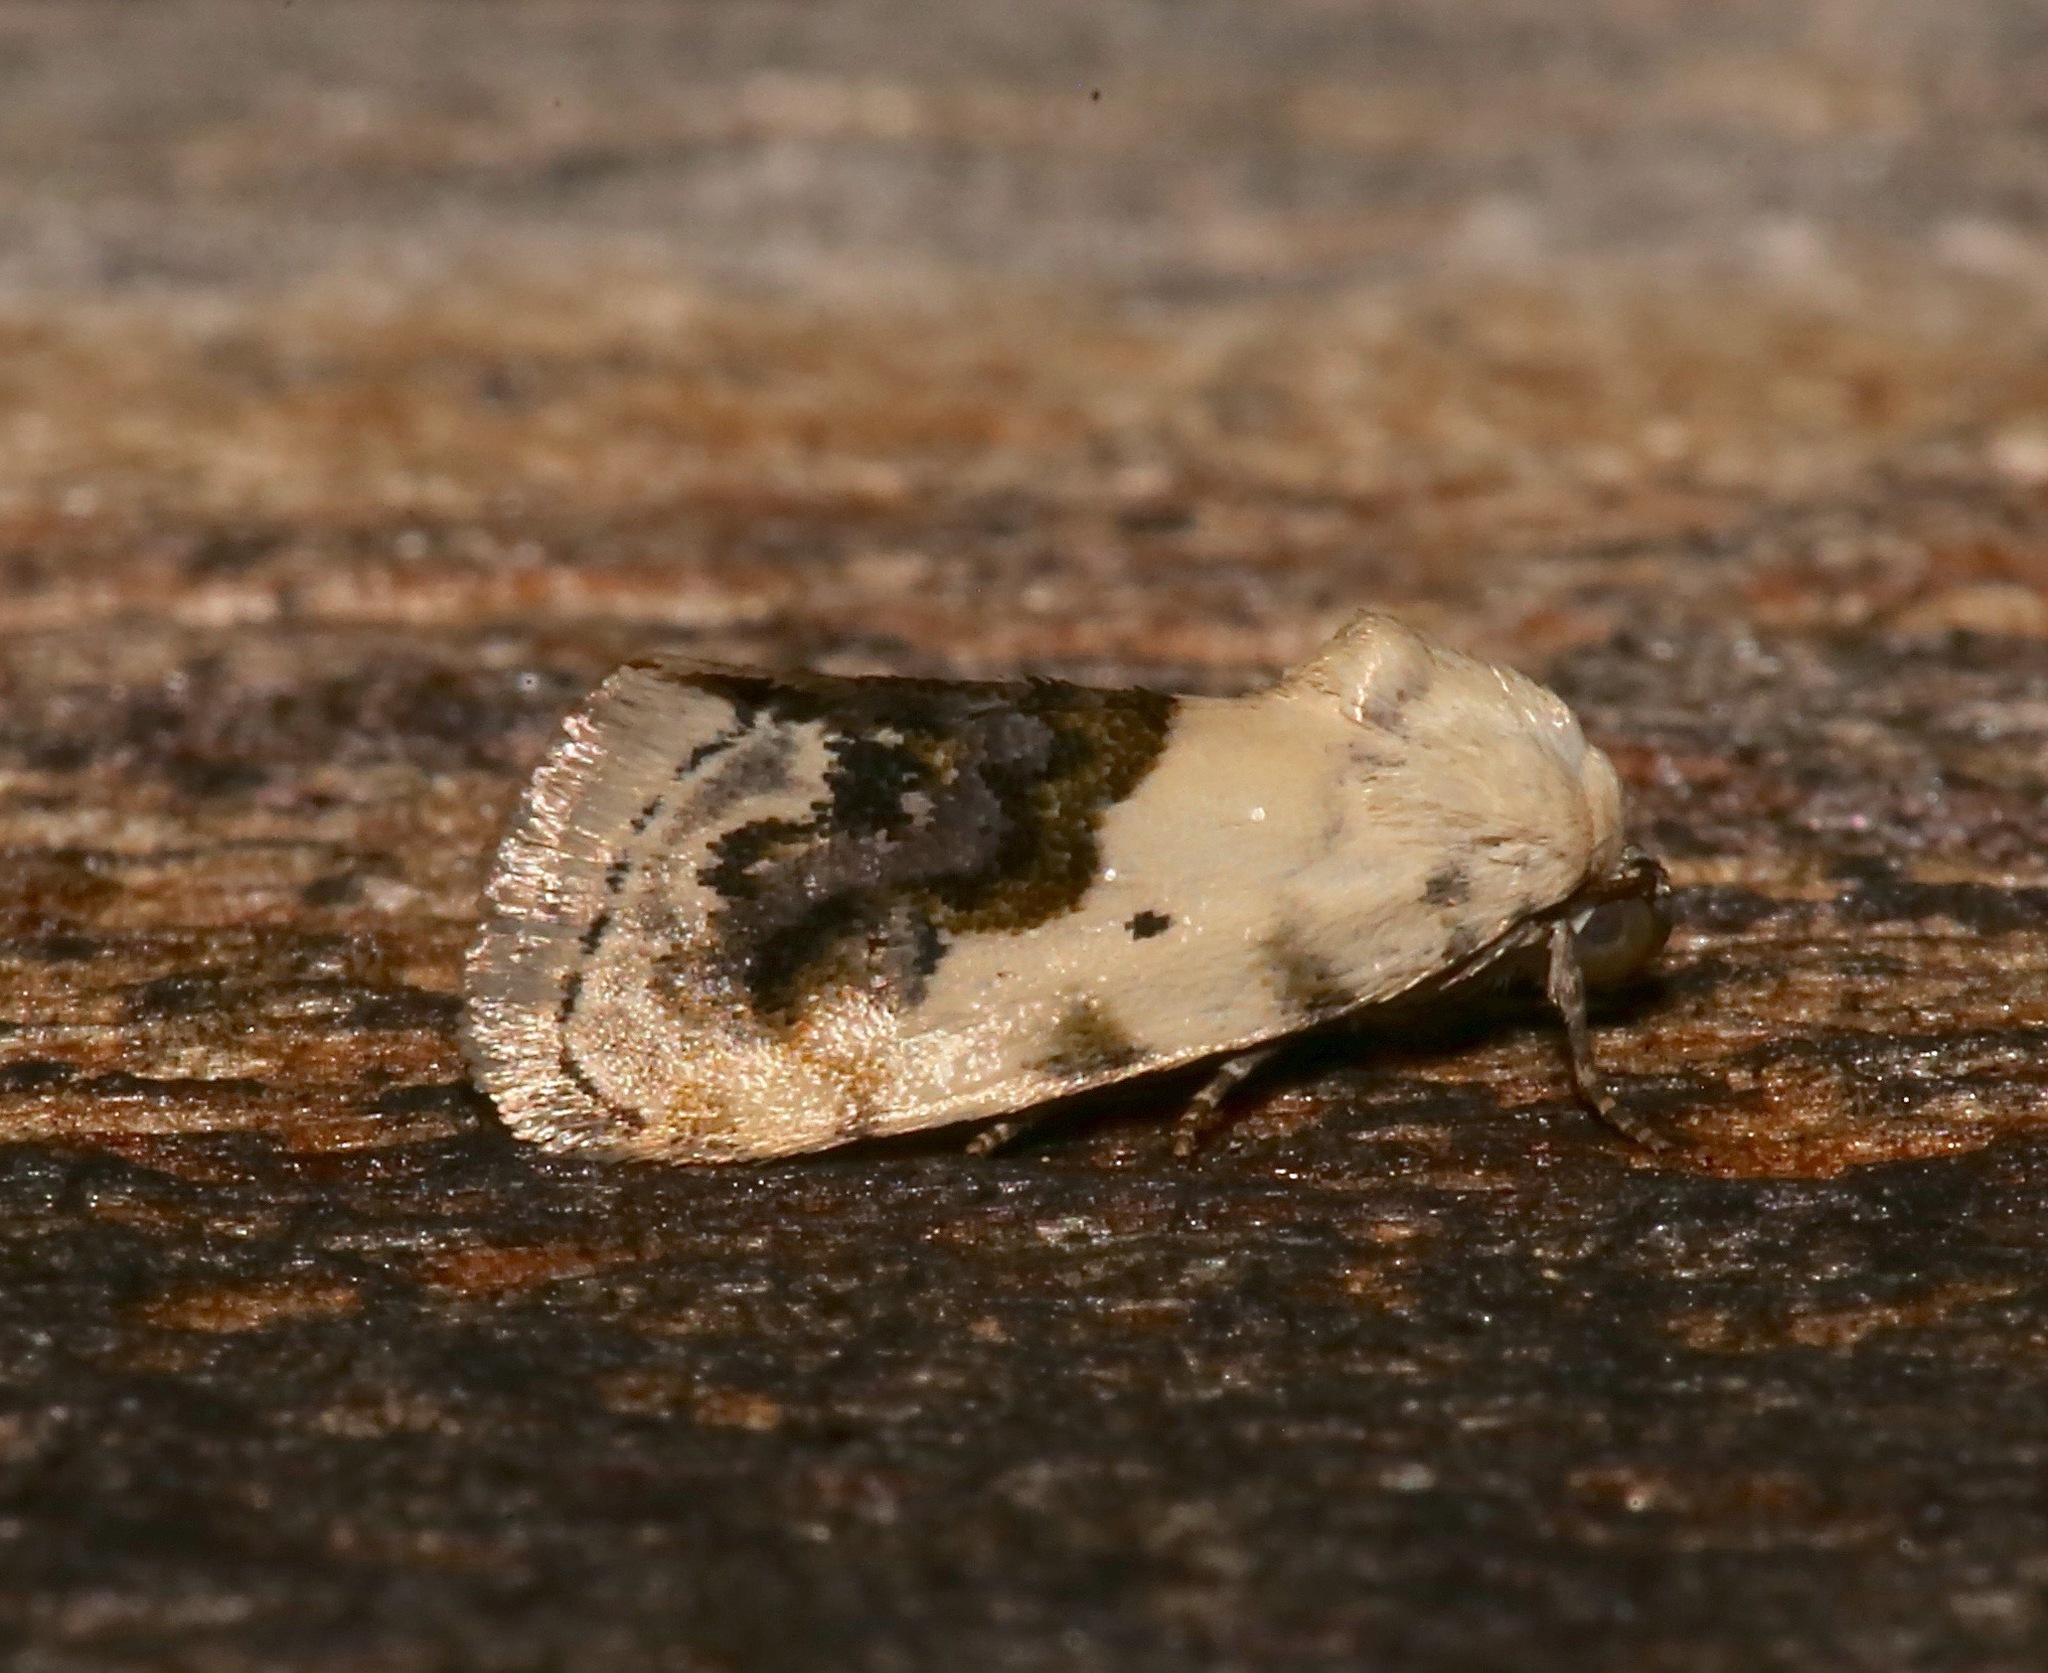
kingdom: Animalia
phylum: Arthropoda
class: Insecta
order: Lepidoptera
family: Noctuidae
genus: Acontia
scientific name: Acontia erastrioides
